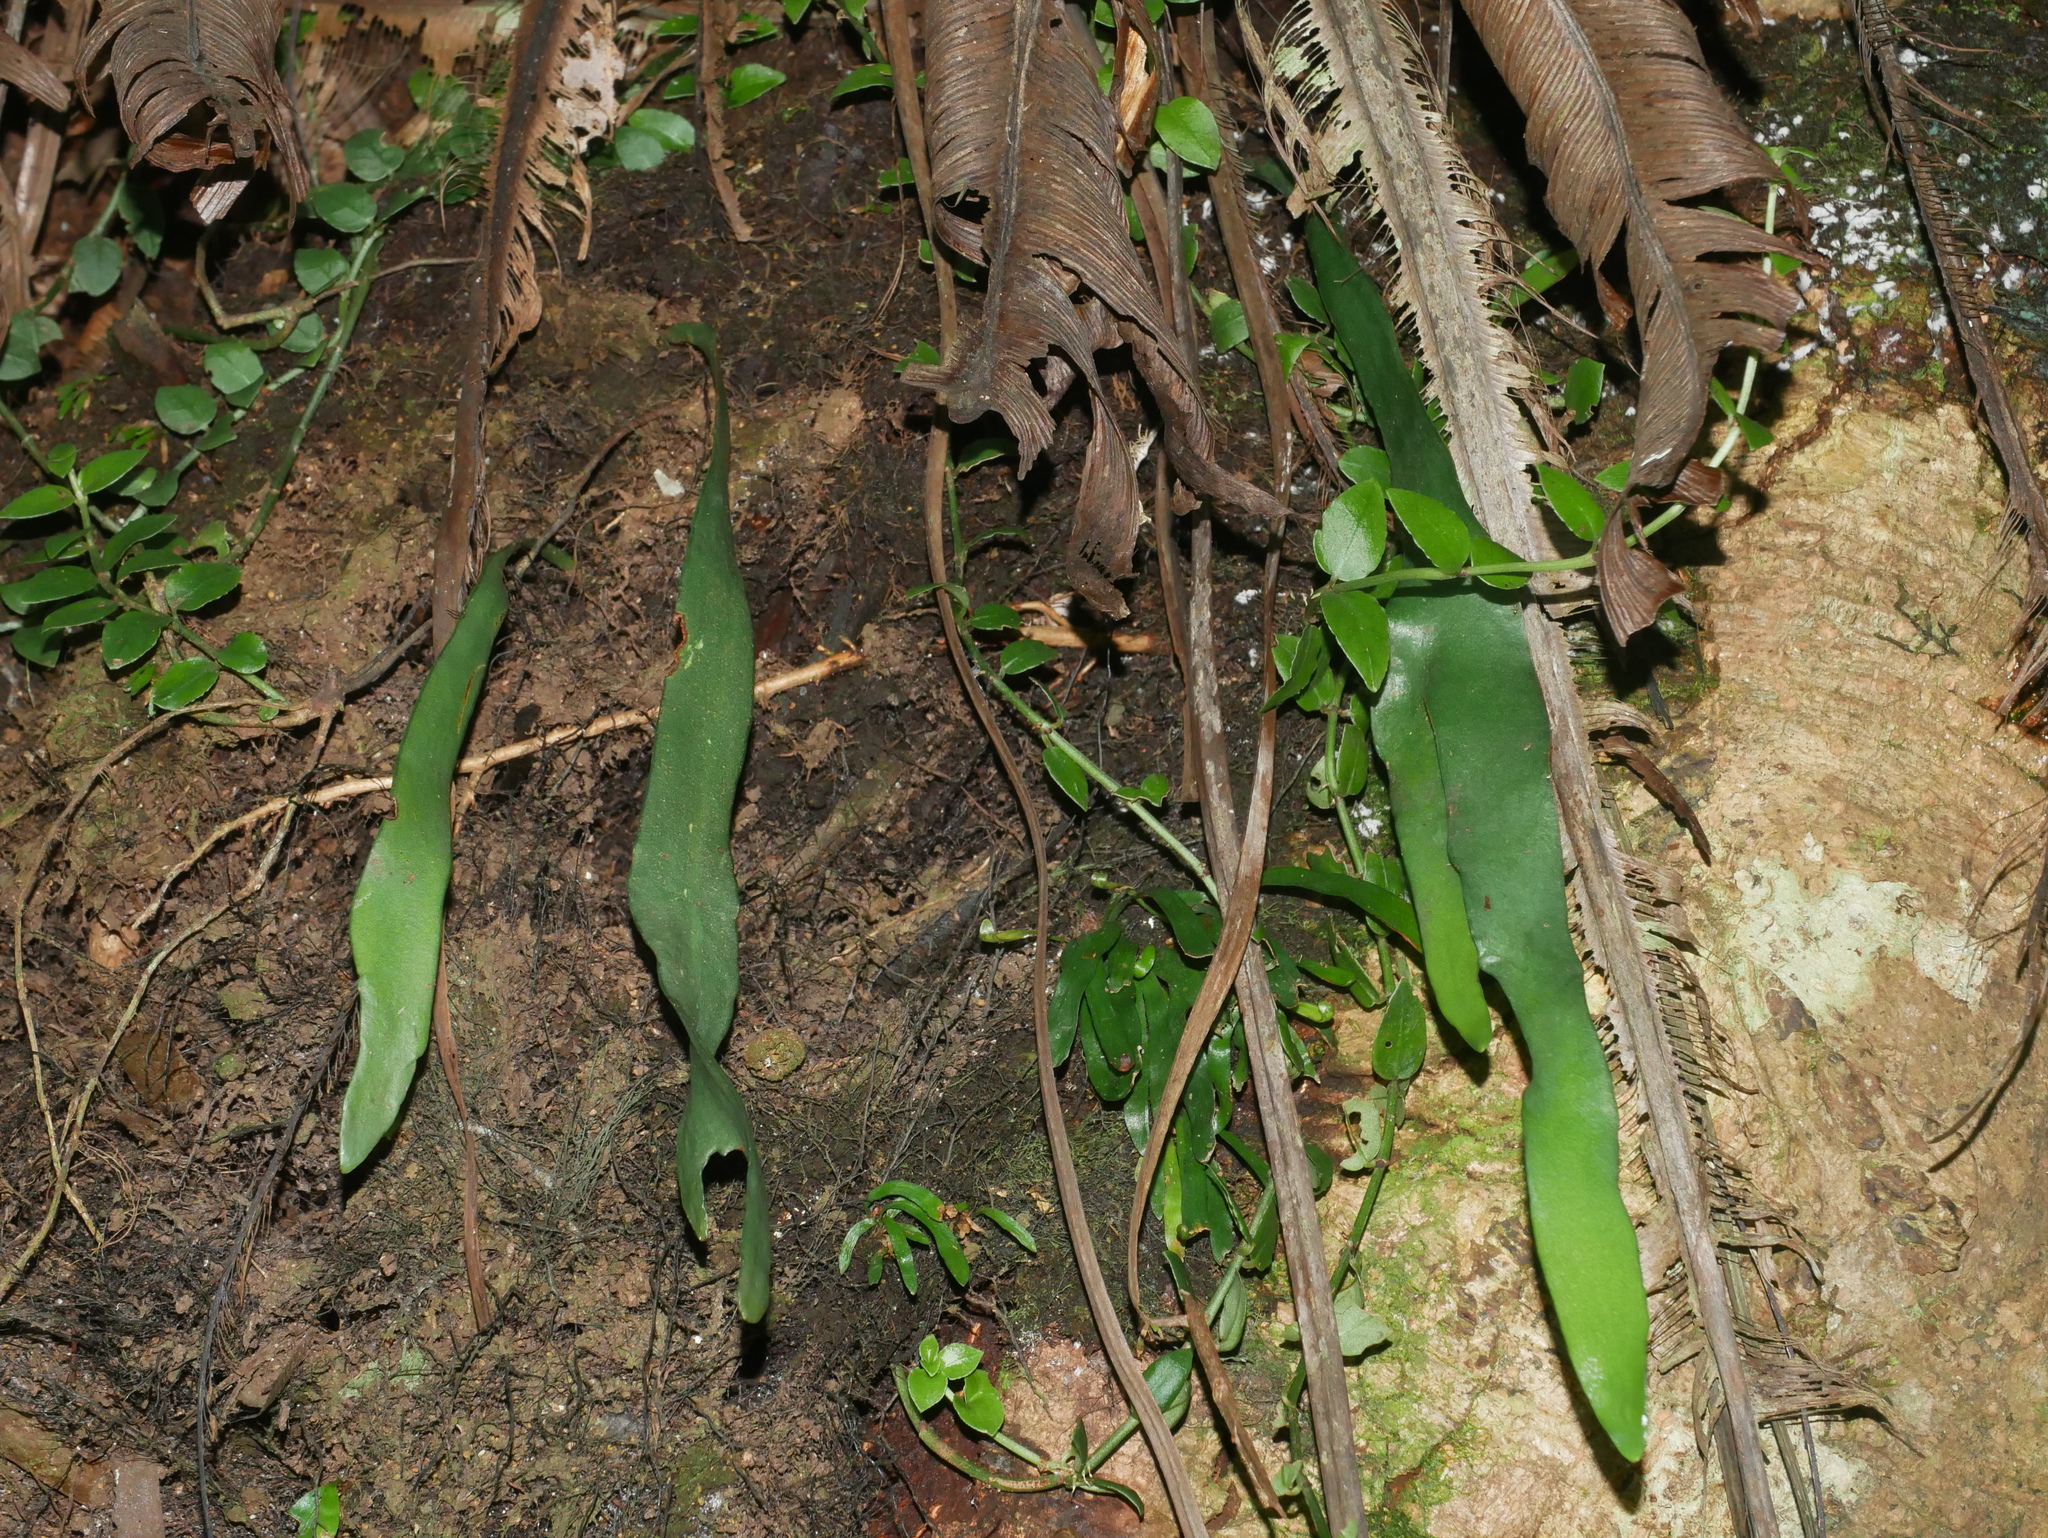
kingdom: Plantae
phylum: Tracheophyta
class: Polypodiopsida
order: Ophioglossales
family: Ophioglossaceae
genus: Ophioderma
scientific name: Ophioderma pendulum
